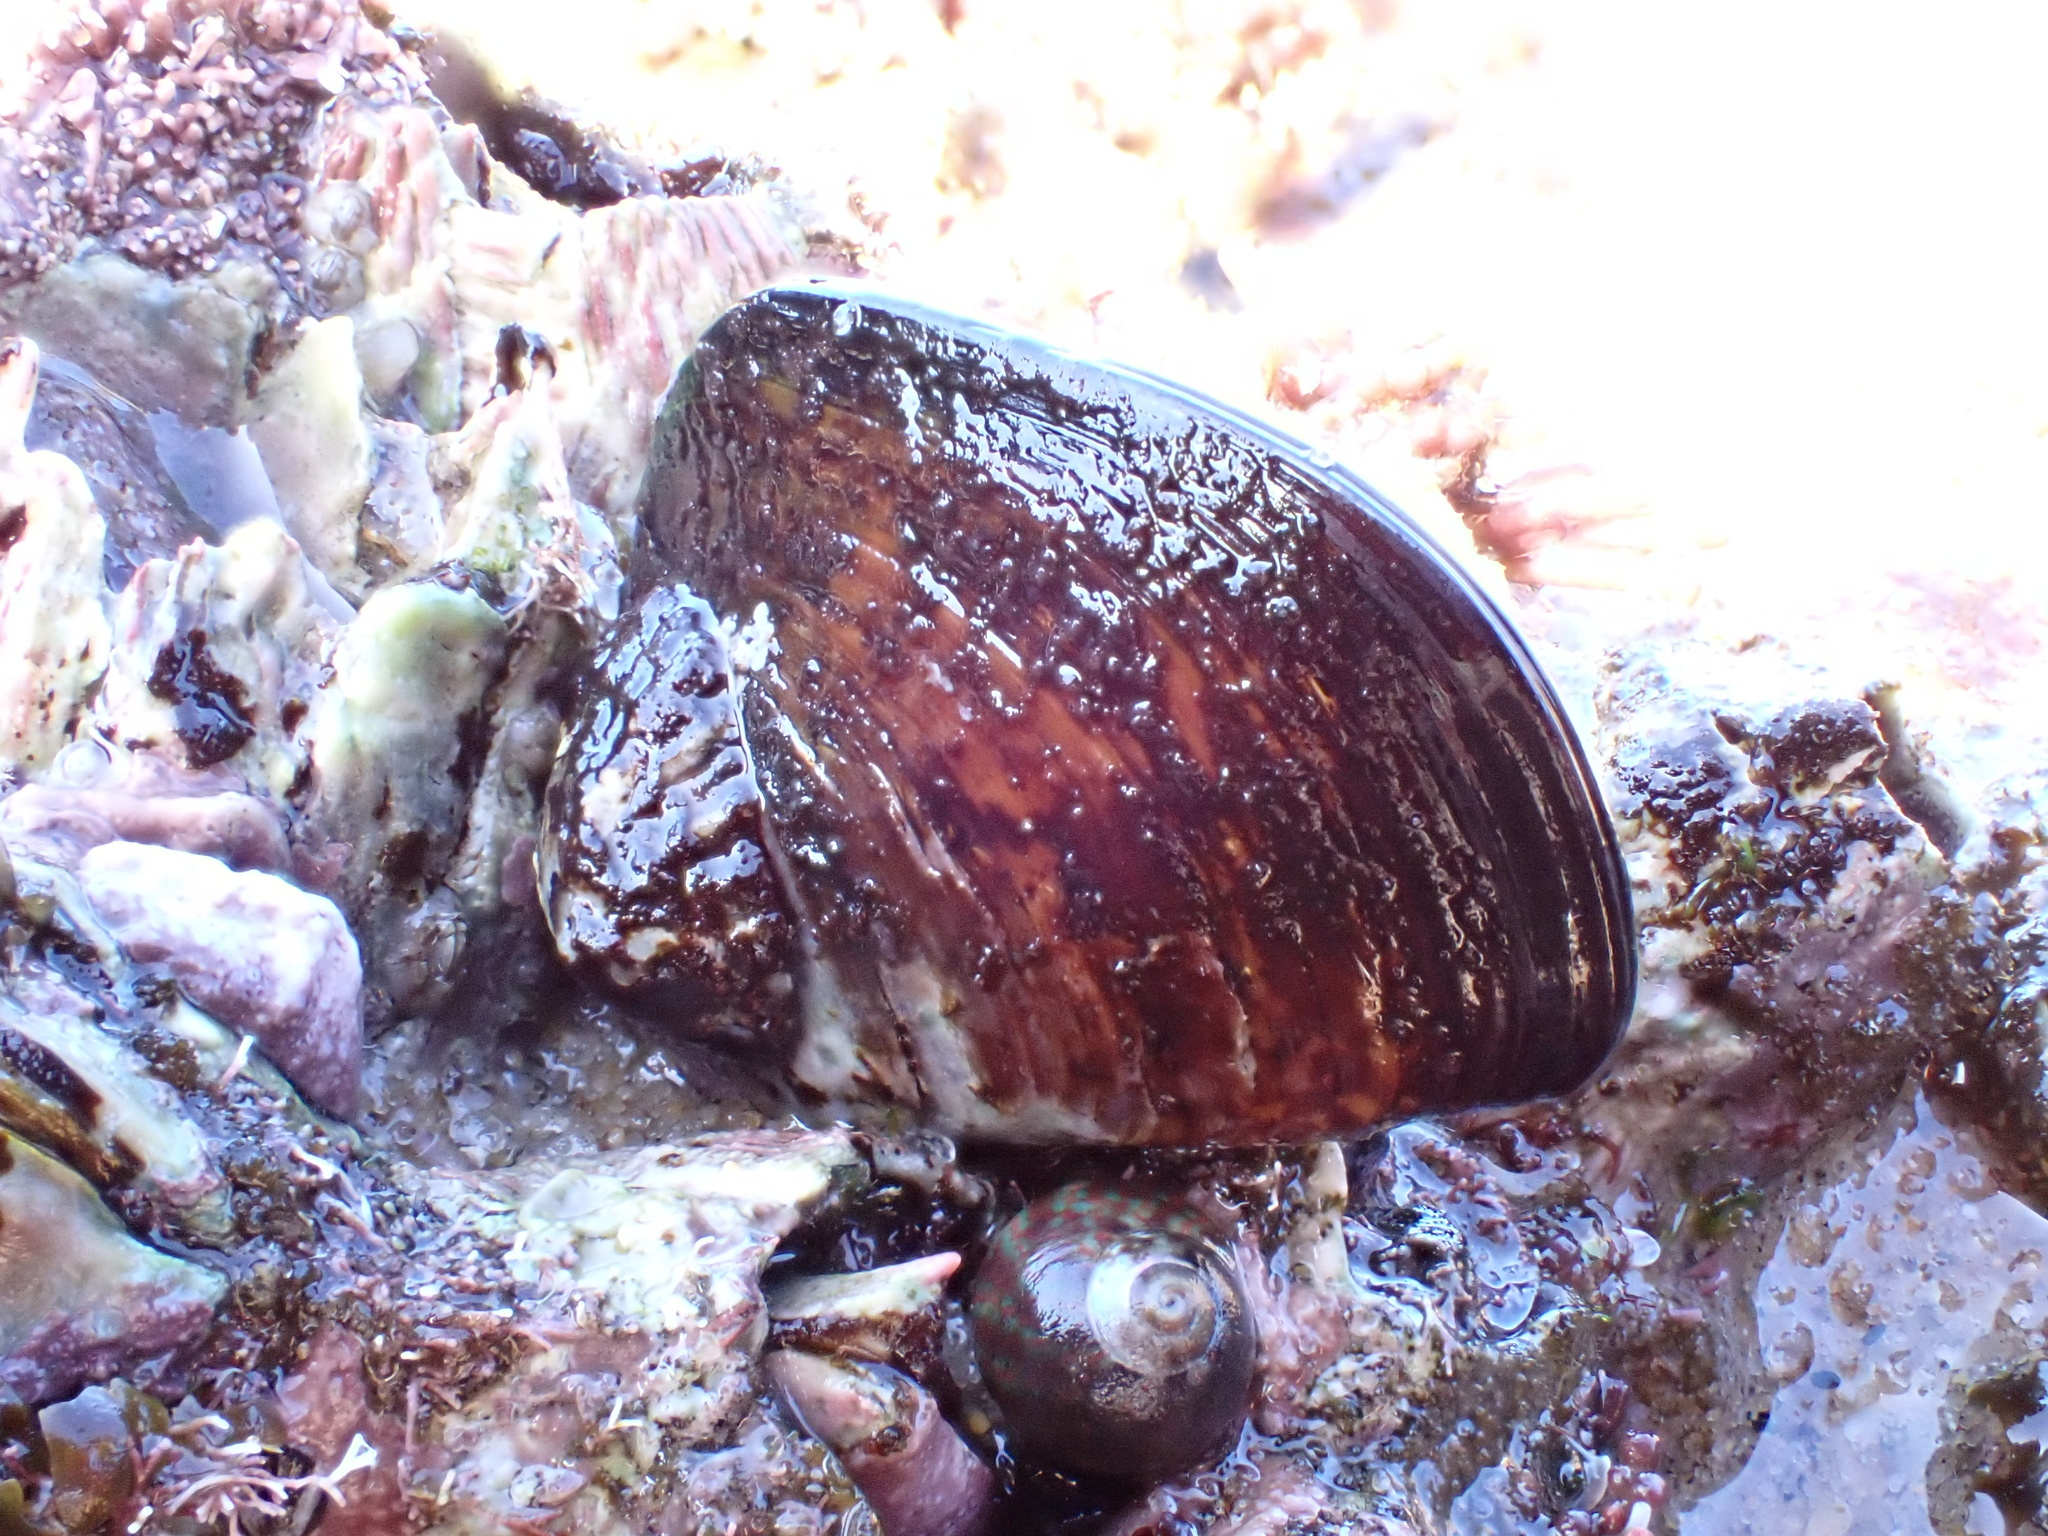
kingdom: Animalia
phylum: Mollusca
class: Bivalvia
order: Mytilida
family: Mytilidae
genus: Perna
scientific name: Perna perna
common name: Mexilhao mussel
